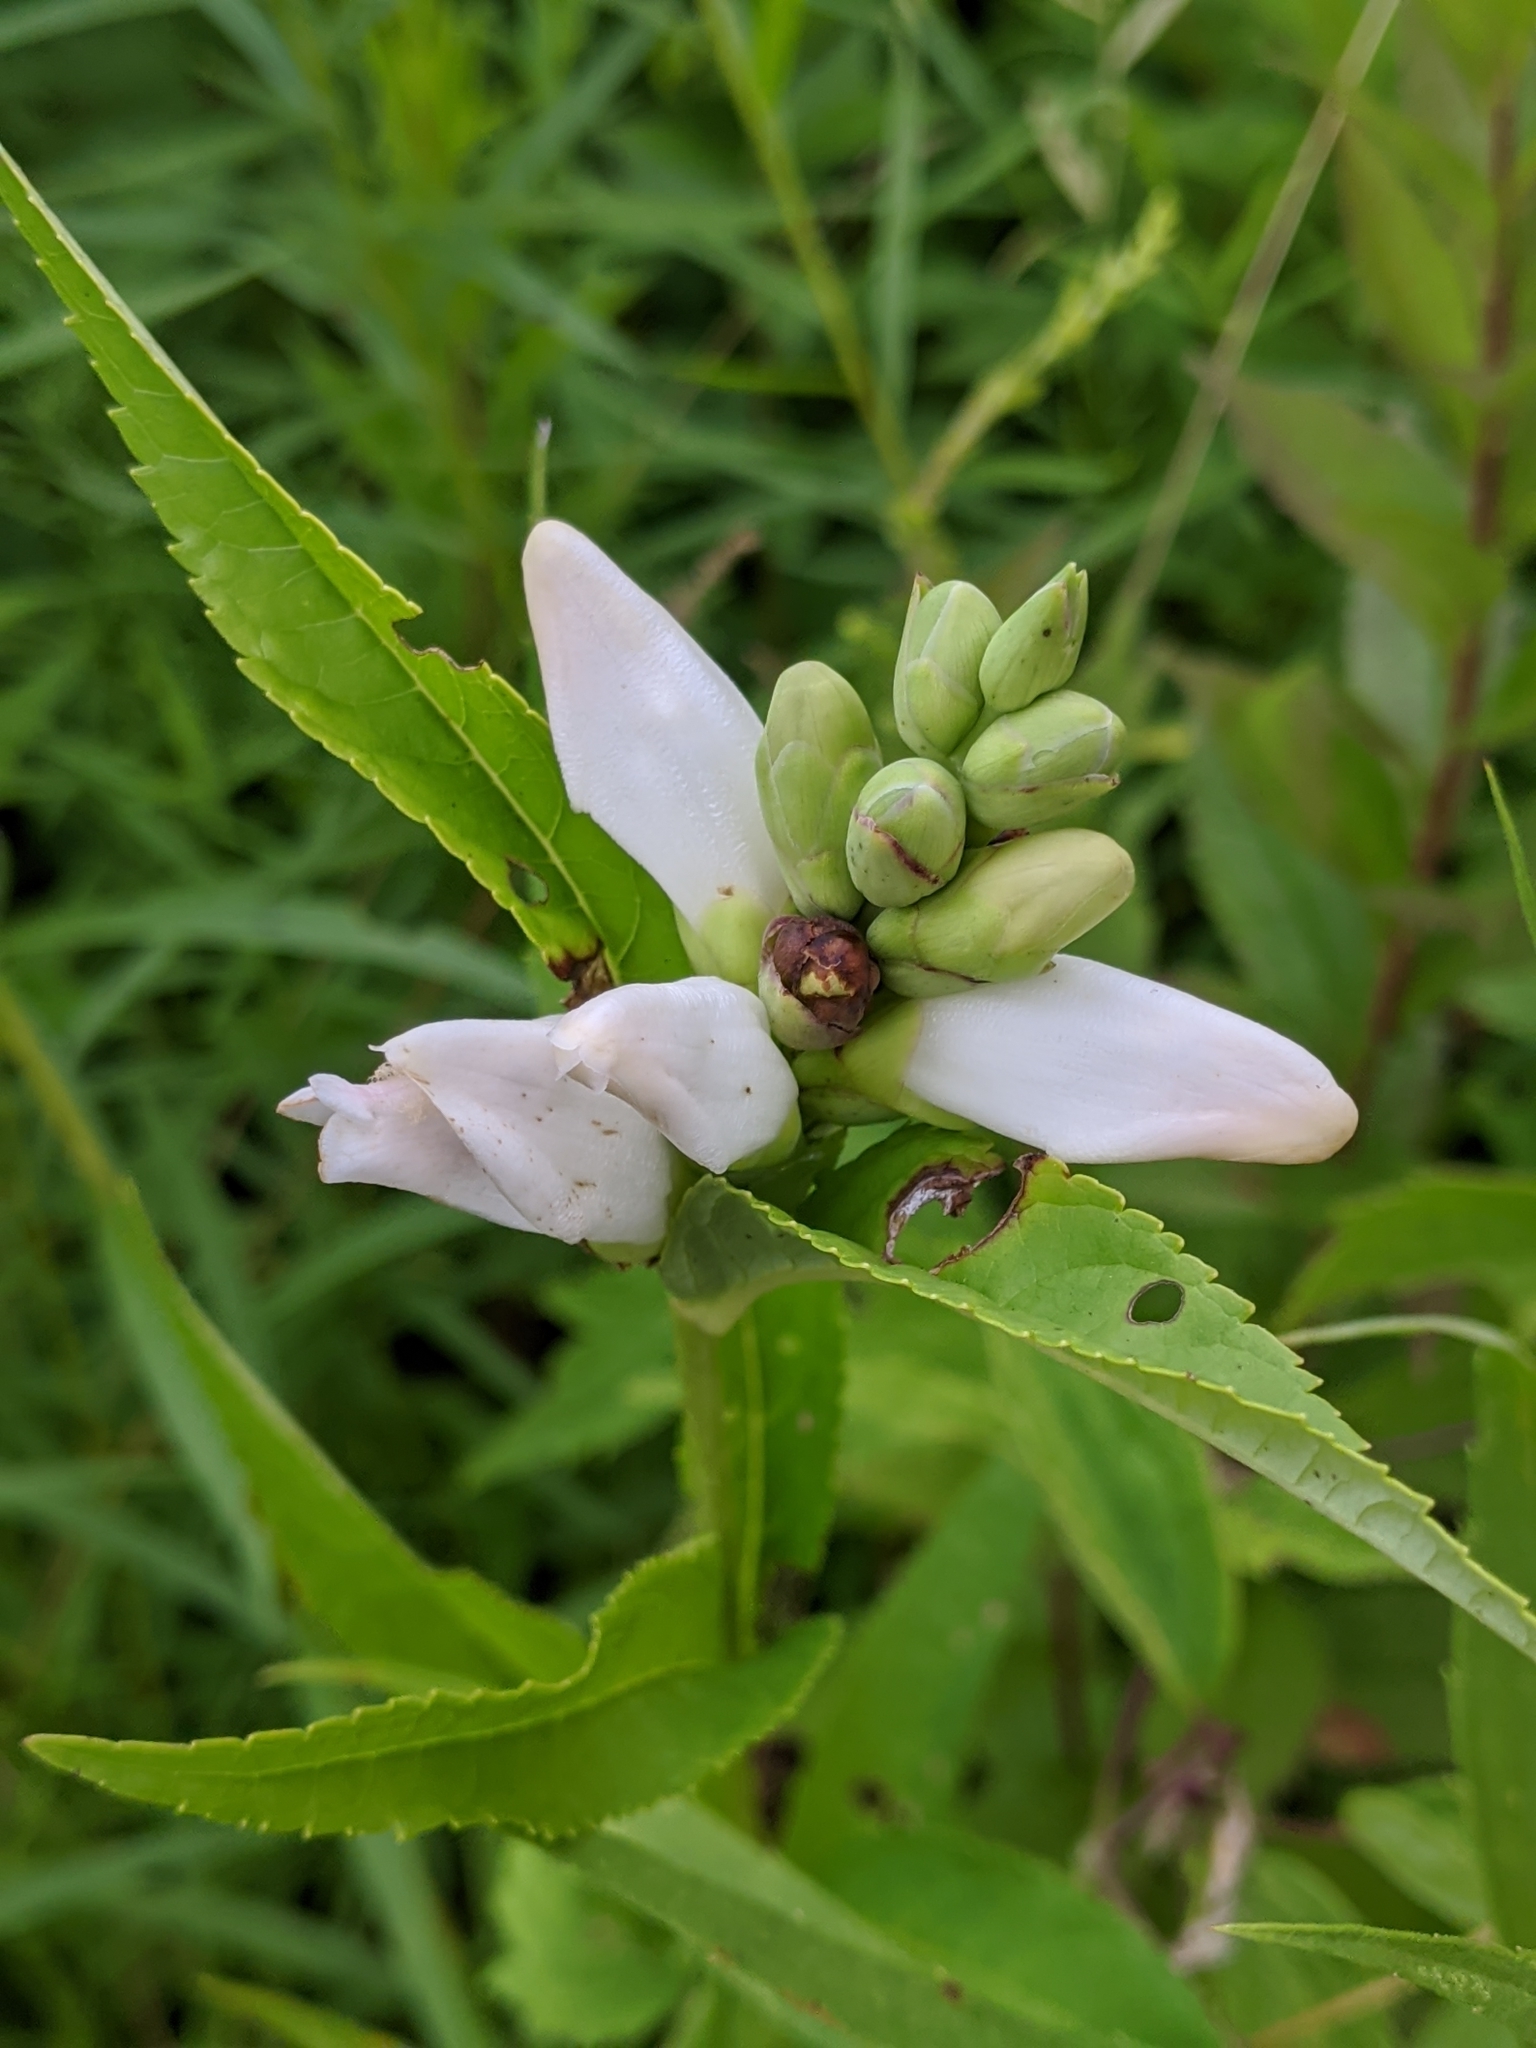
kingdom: Plantae
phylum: Tracheophyta
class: Magnoliopsida
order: Lamiales
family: Plantaginaceae
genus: Chelone
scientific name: Chelone glabra
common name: Snakehead
